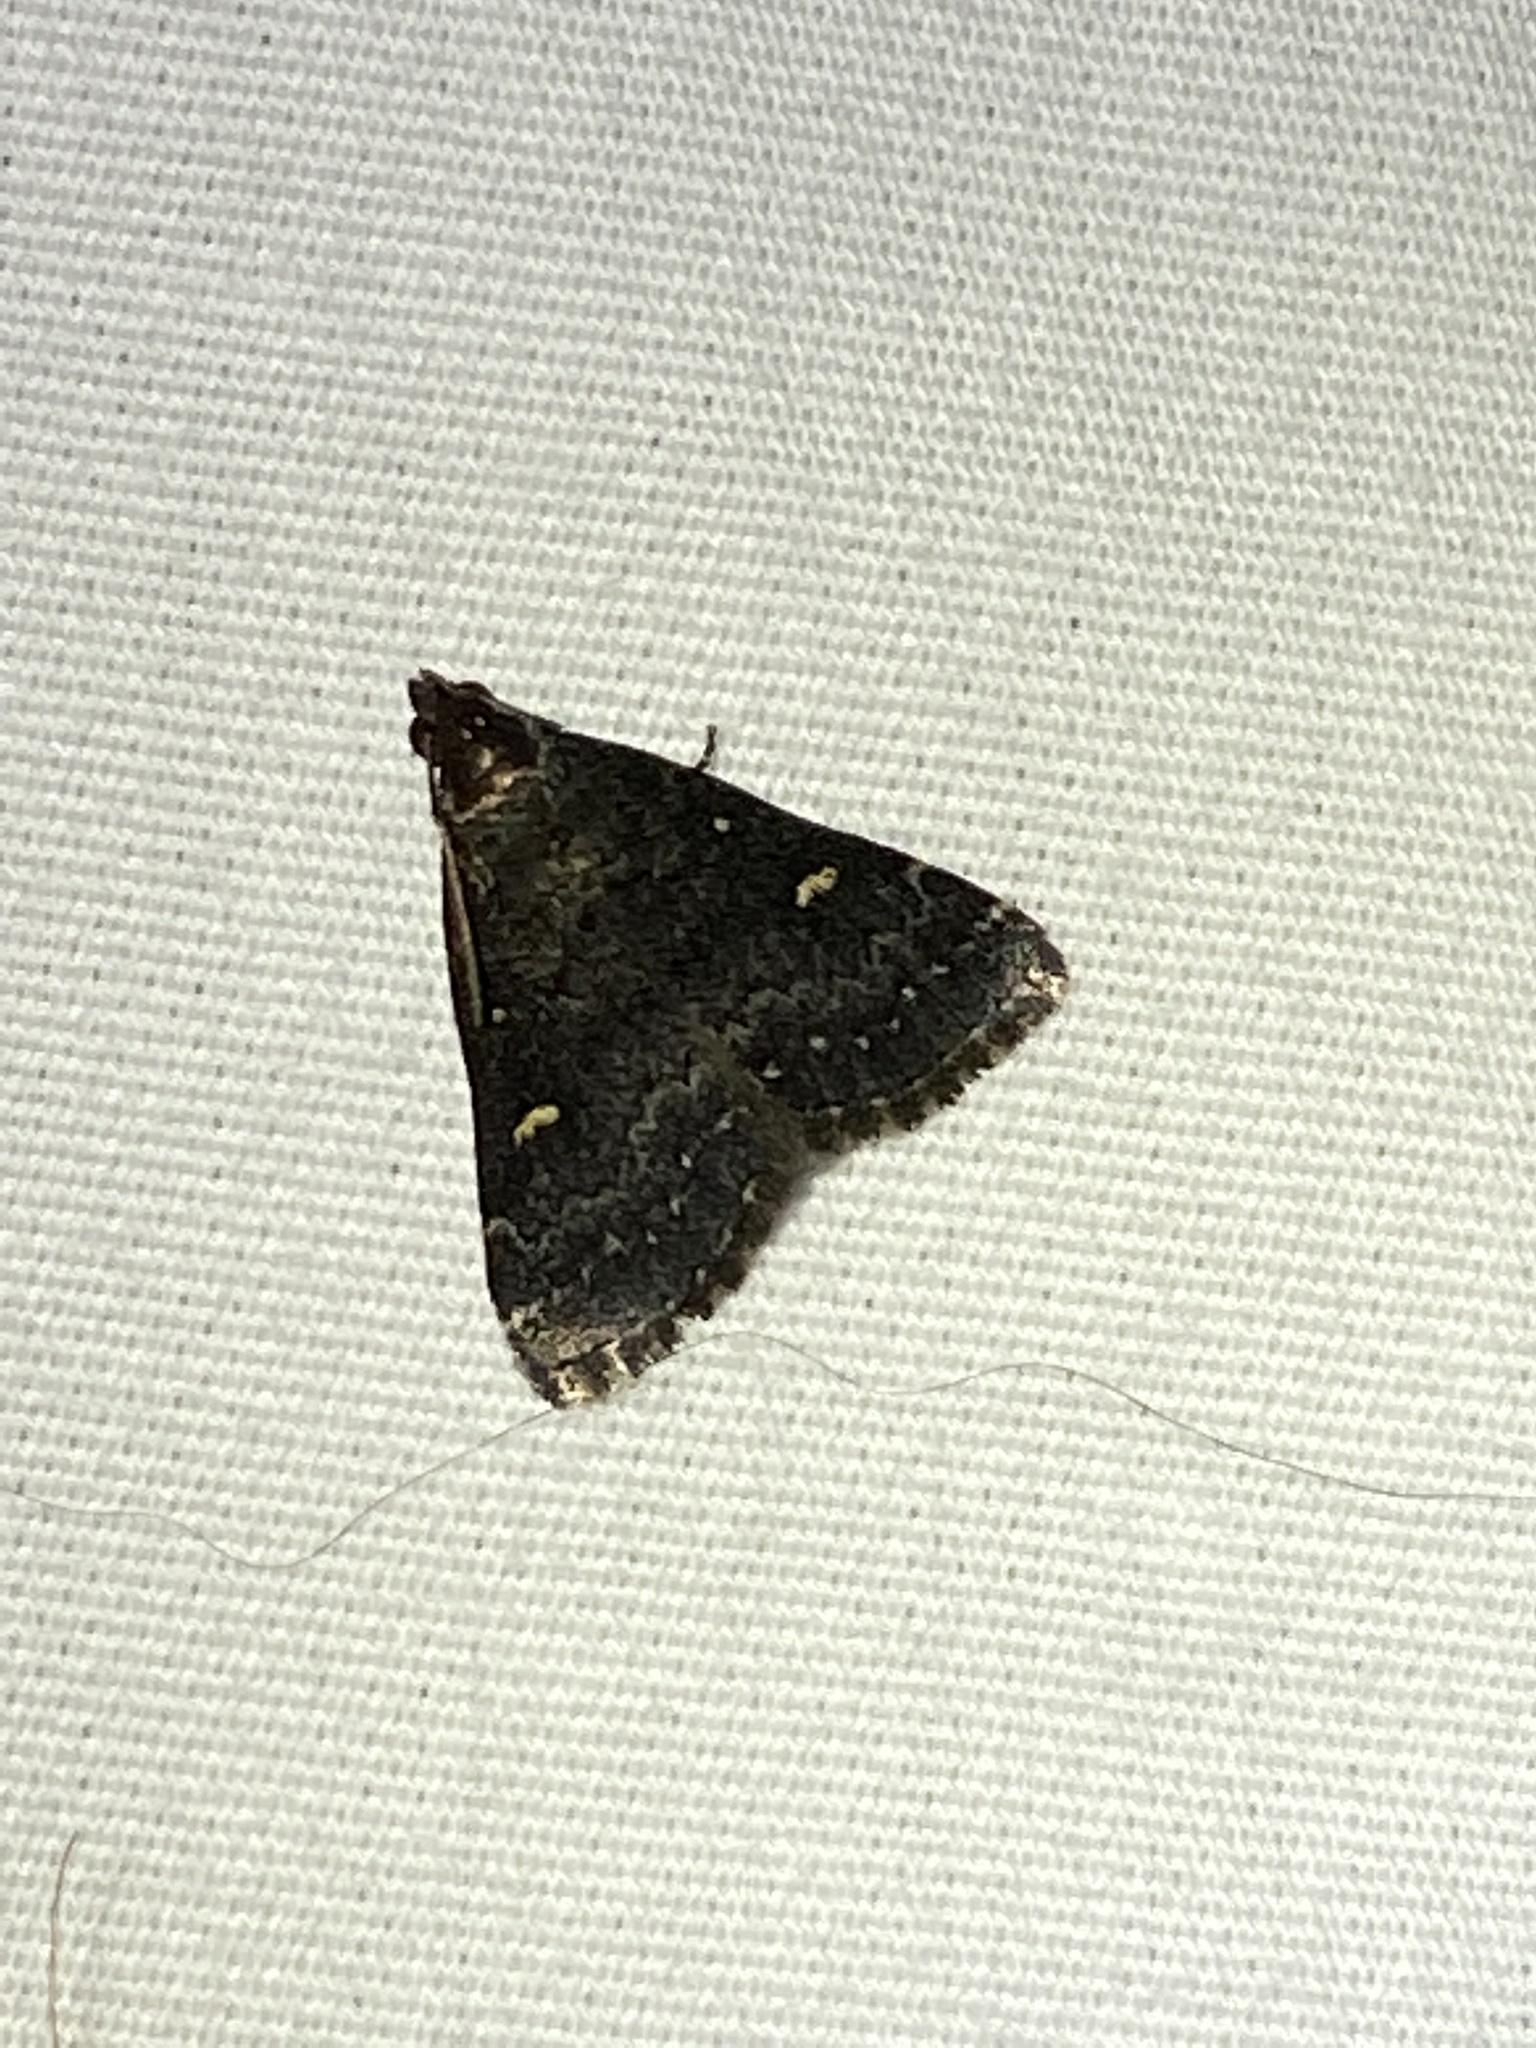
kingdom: Animalia
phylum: Arthropoda
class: Insecta
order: Lepidoptera
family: Erebidae
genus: Tetanolita
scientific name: Tetanolita mynesalis
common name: Smoky tetanolita moth
